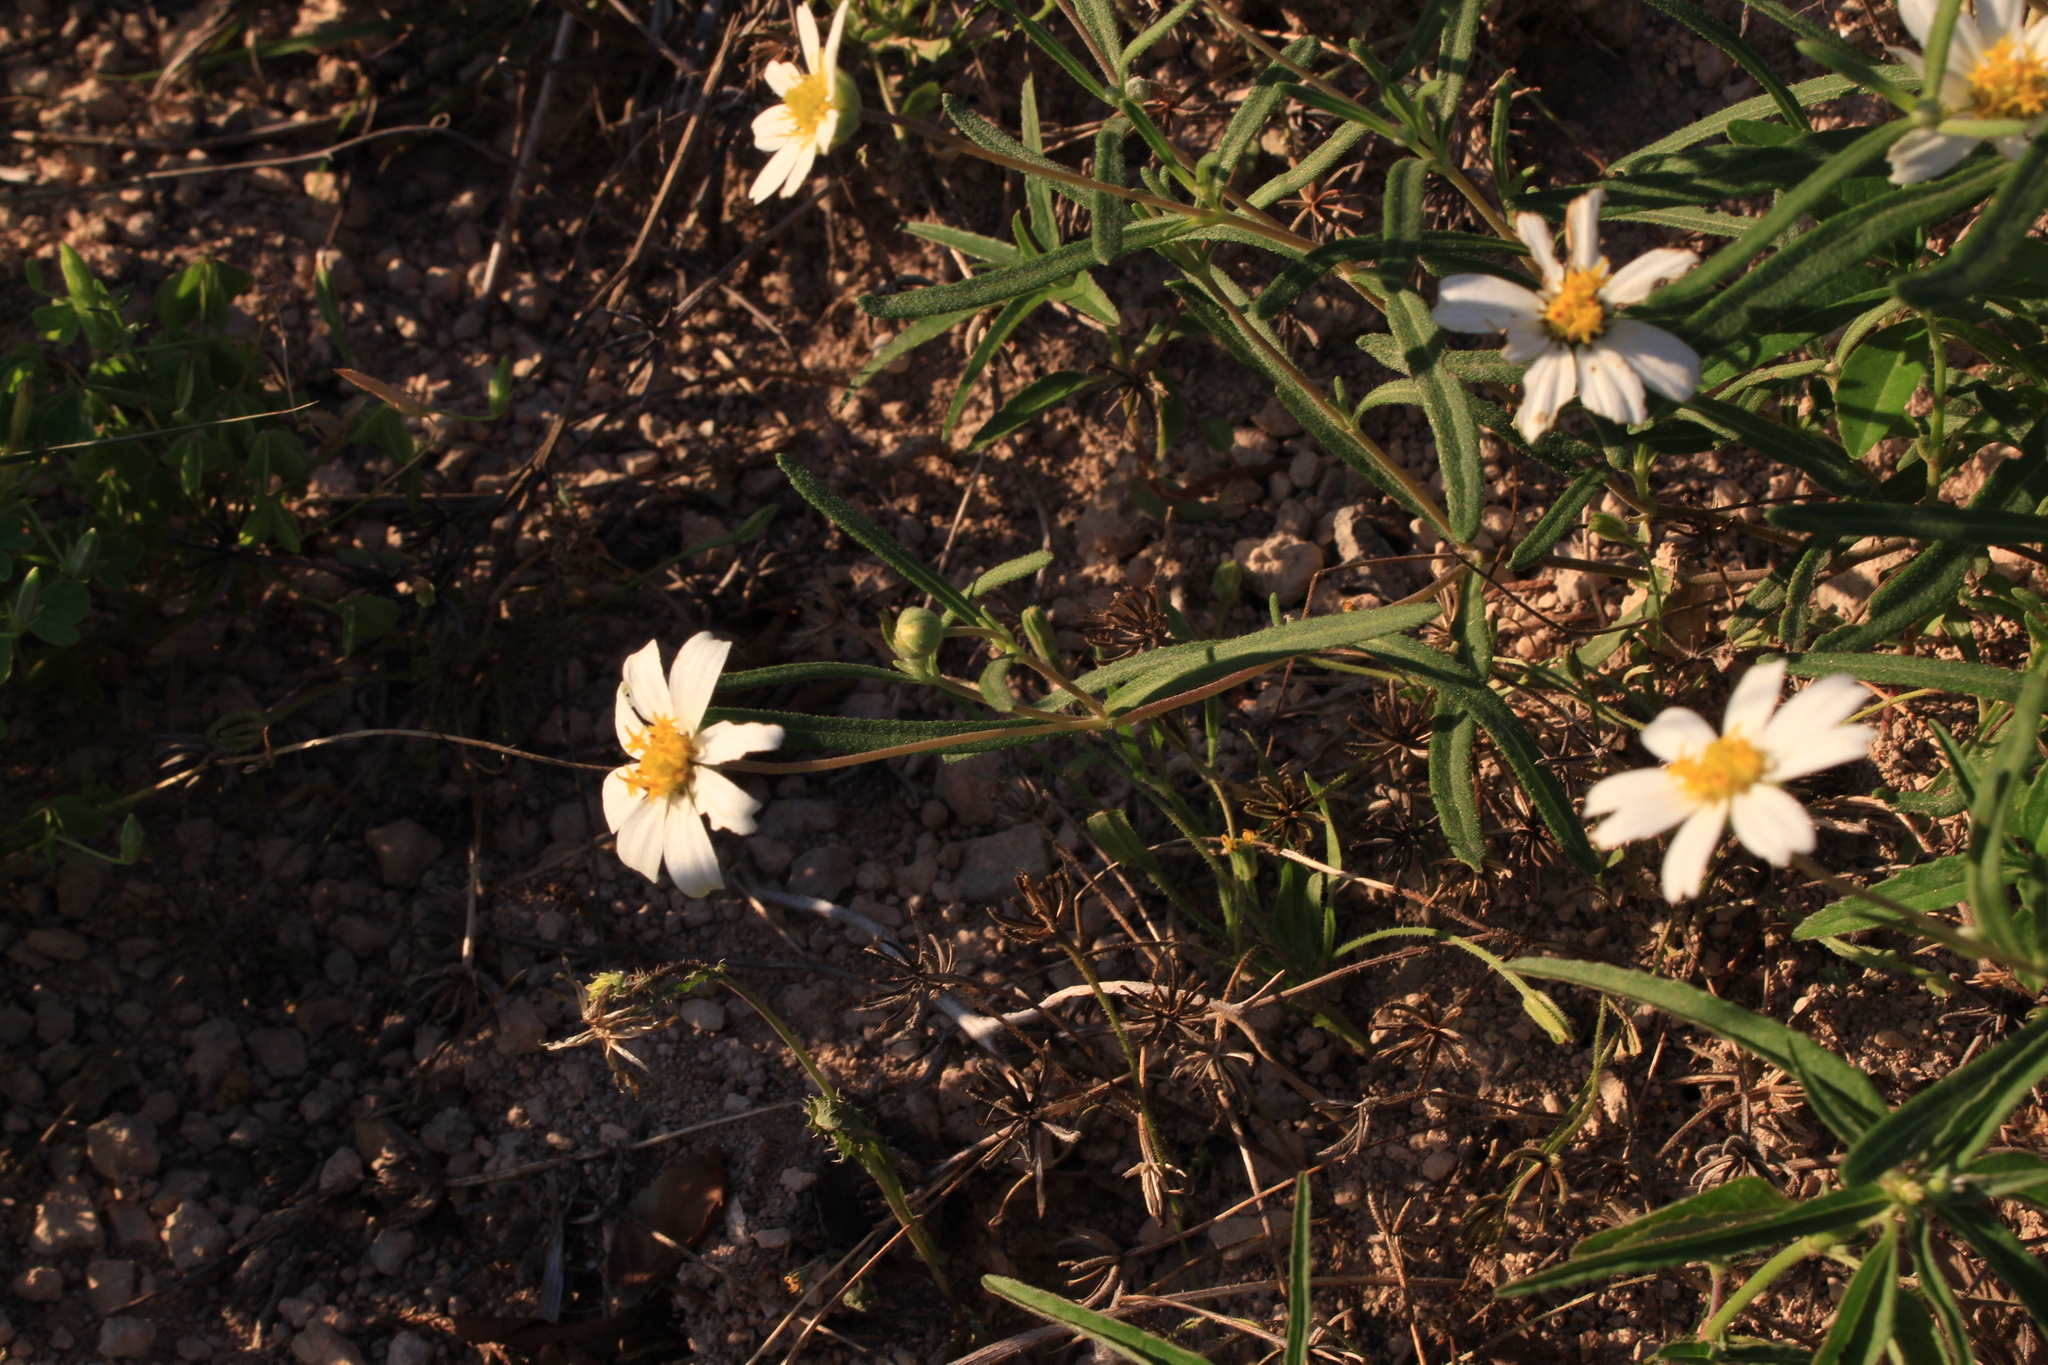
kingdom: Plantae
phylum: Tracheophyta
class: Magnoliopsida
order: Asterales
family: Asteraceae
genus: Melampodium
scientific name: Melampodium leucanthum
